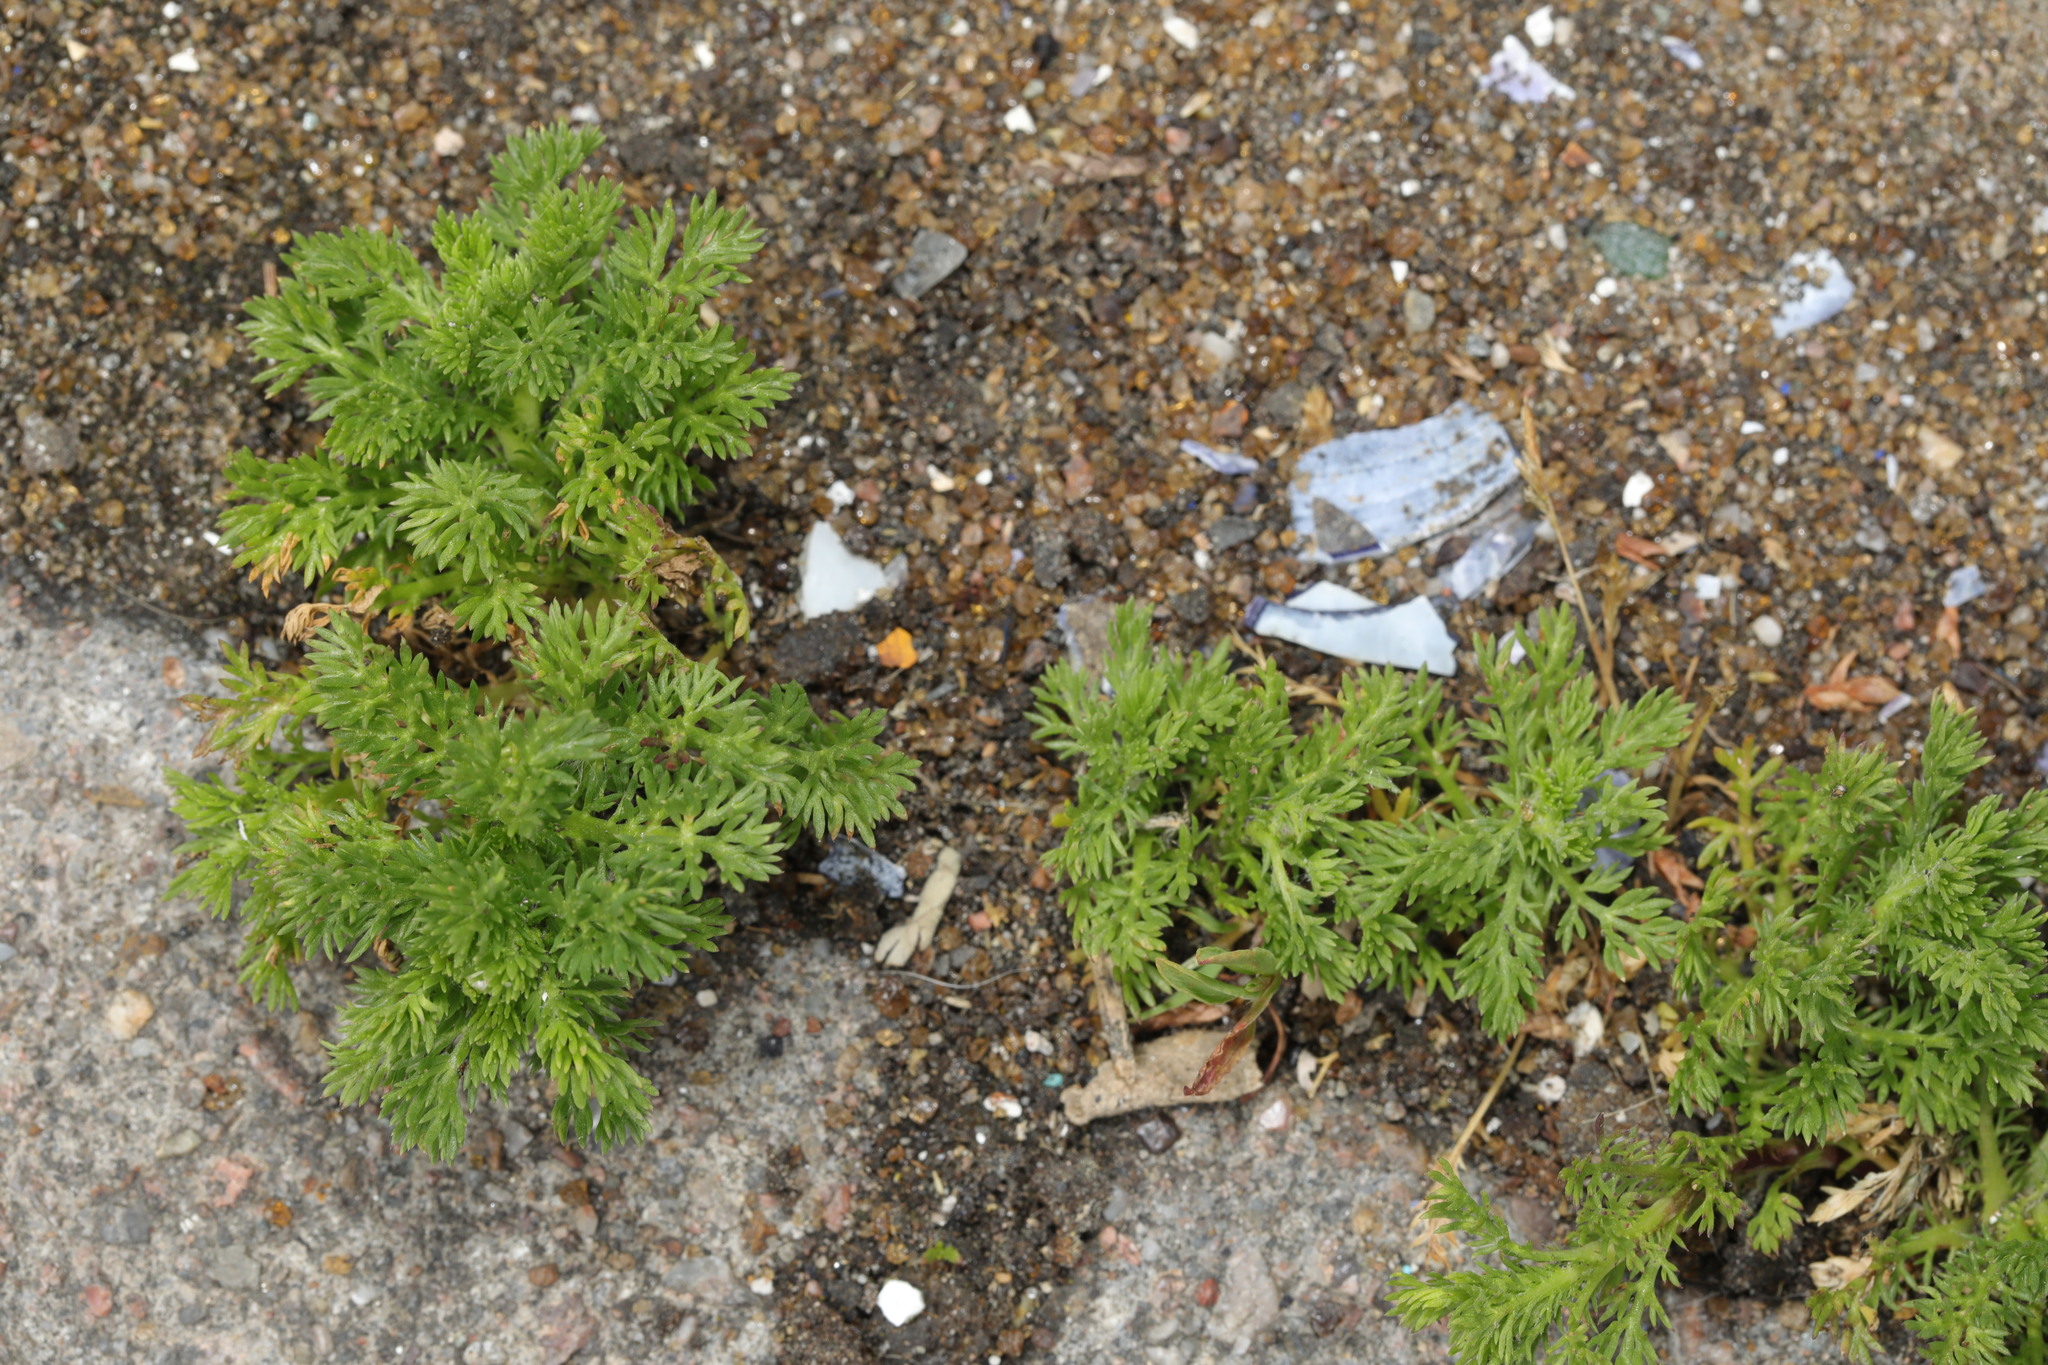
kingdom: Plantae
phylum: Tracheophyta
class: Magnoliopsida
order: Asterales
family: Asteraceae
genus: Matricaria
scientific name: Matricaria discoidea
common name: Disc mayweed
